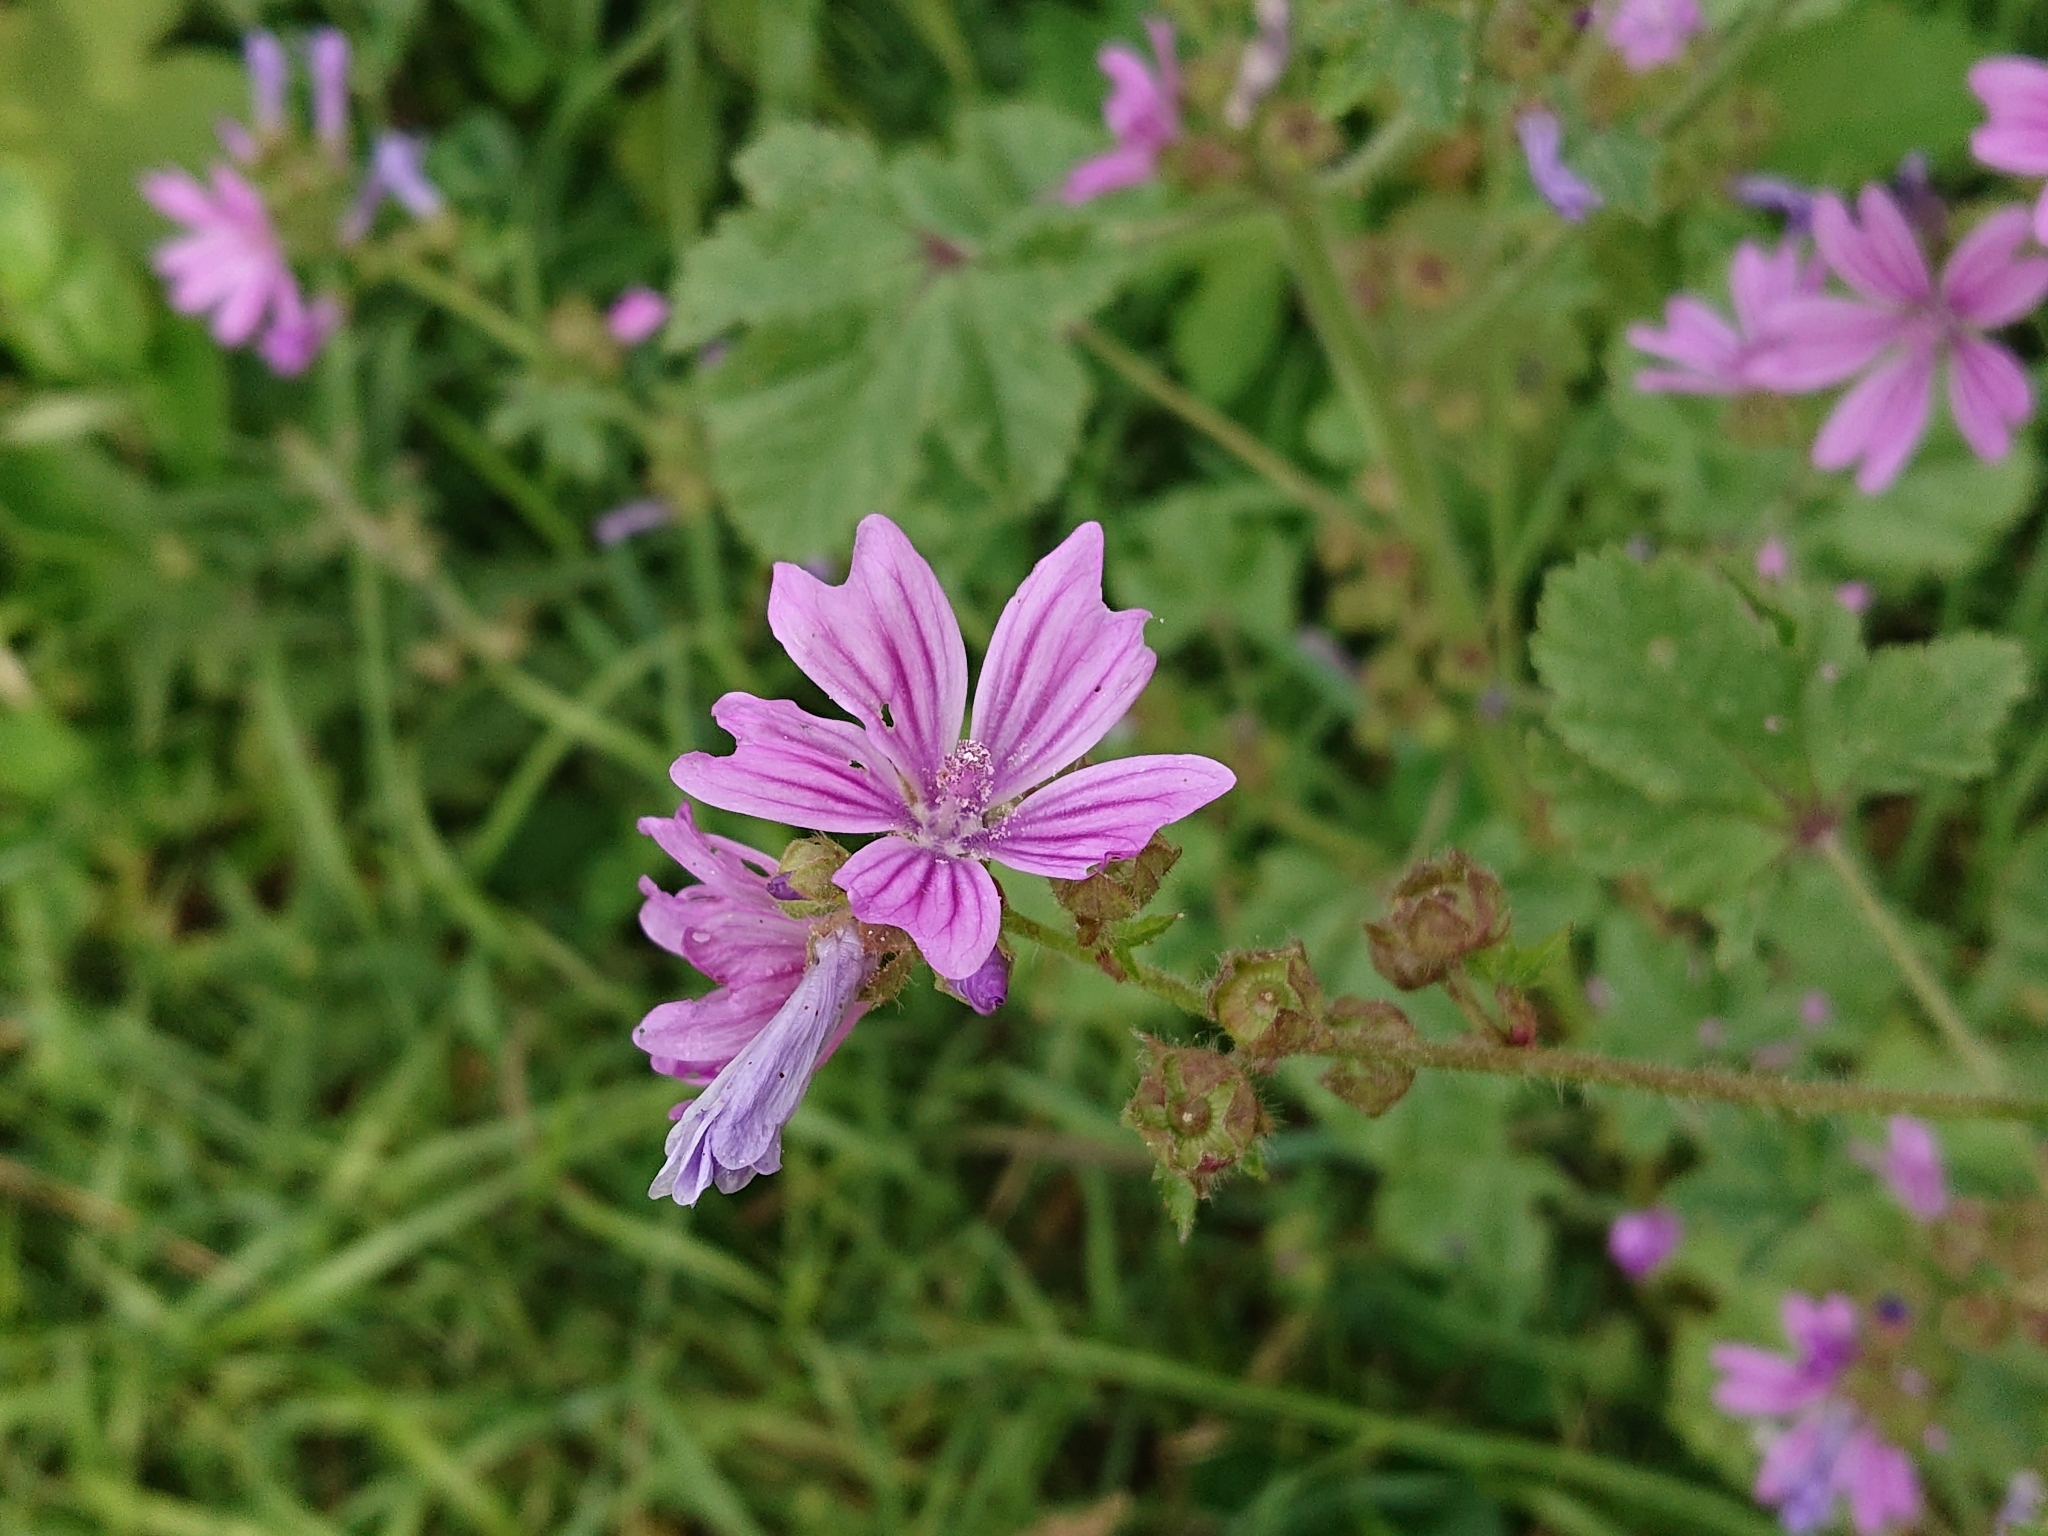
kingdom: Plantae
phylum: Tracheophyta
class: Magnoliopsida
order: Malvales
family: Malvaceae
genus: Malva
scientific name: Malva sylvestris
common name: Common mallow
